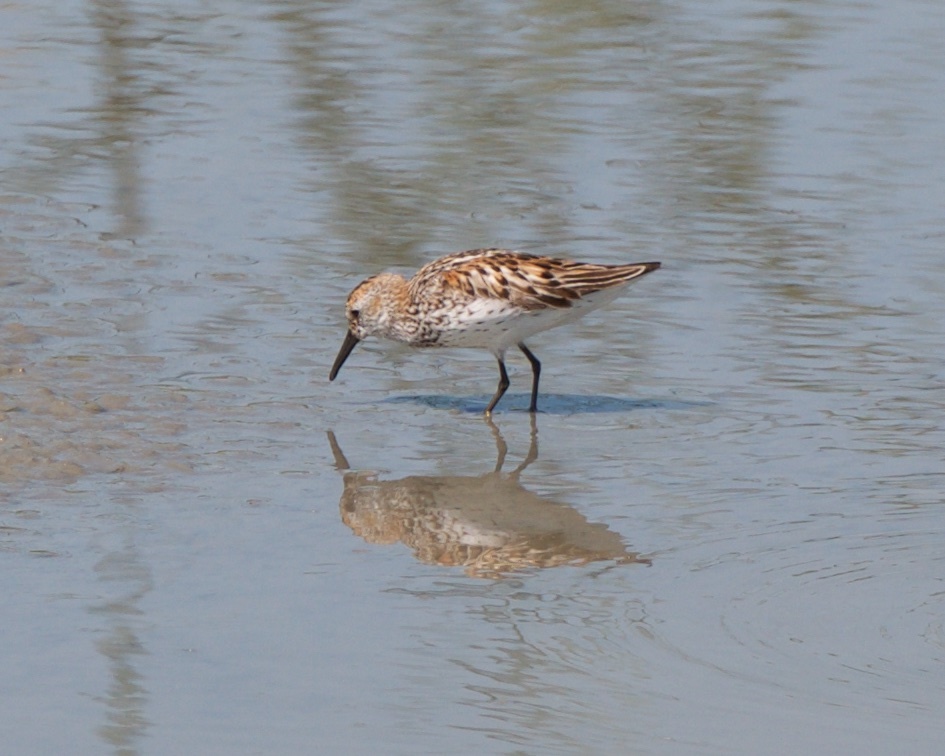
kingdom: Animalia
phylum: Chordata
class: Aves
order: Charadriiformes
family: Scolopacidae
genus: Calidris
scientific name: Calidris mauri
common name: Western sandpiper
